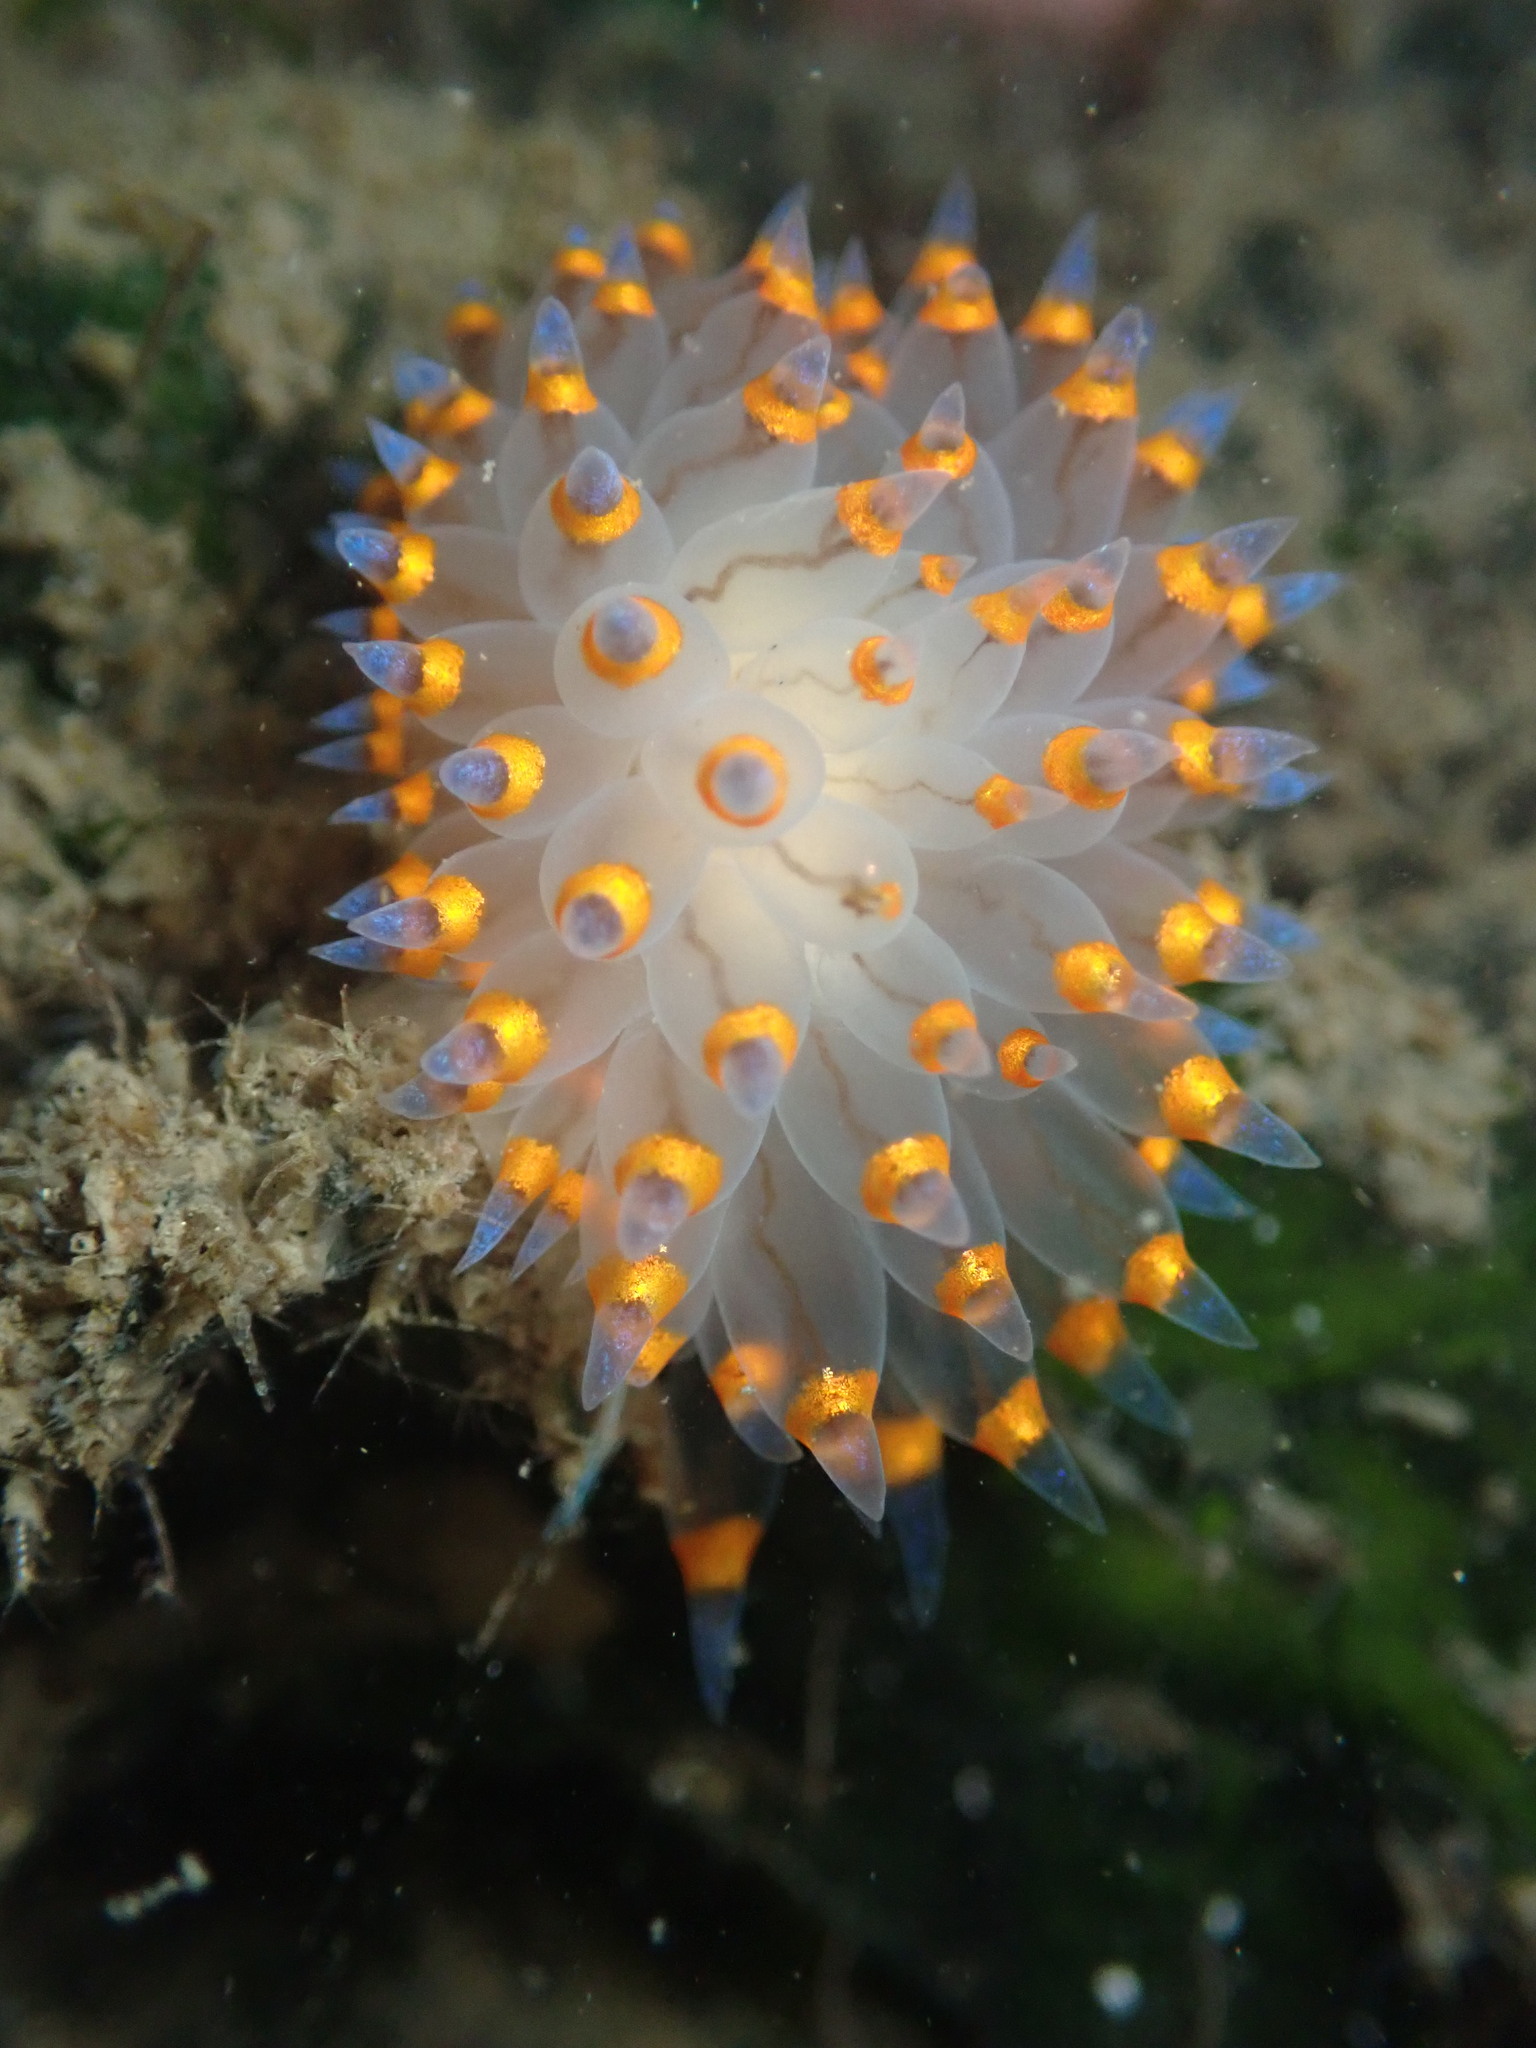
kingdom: Animalia
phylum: Mollusca
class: Gastropoda
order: Nudibranchia
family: Janolidae
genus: Antiopella
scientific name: Antiopella barbarensis
